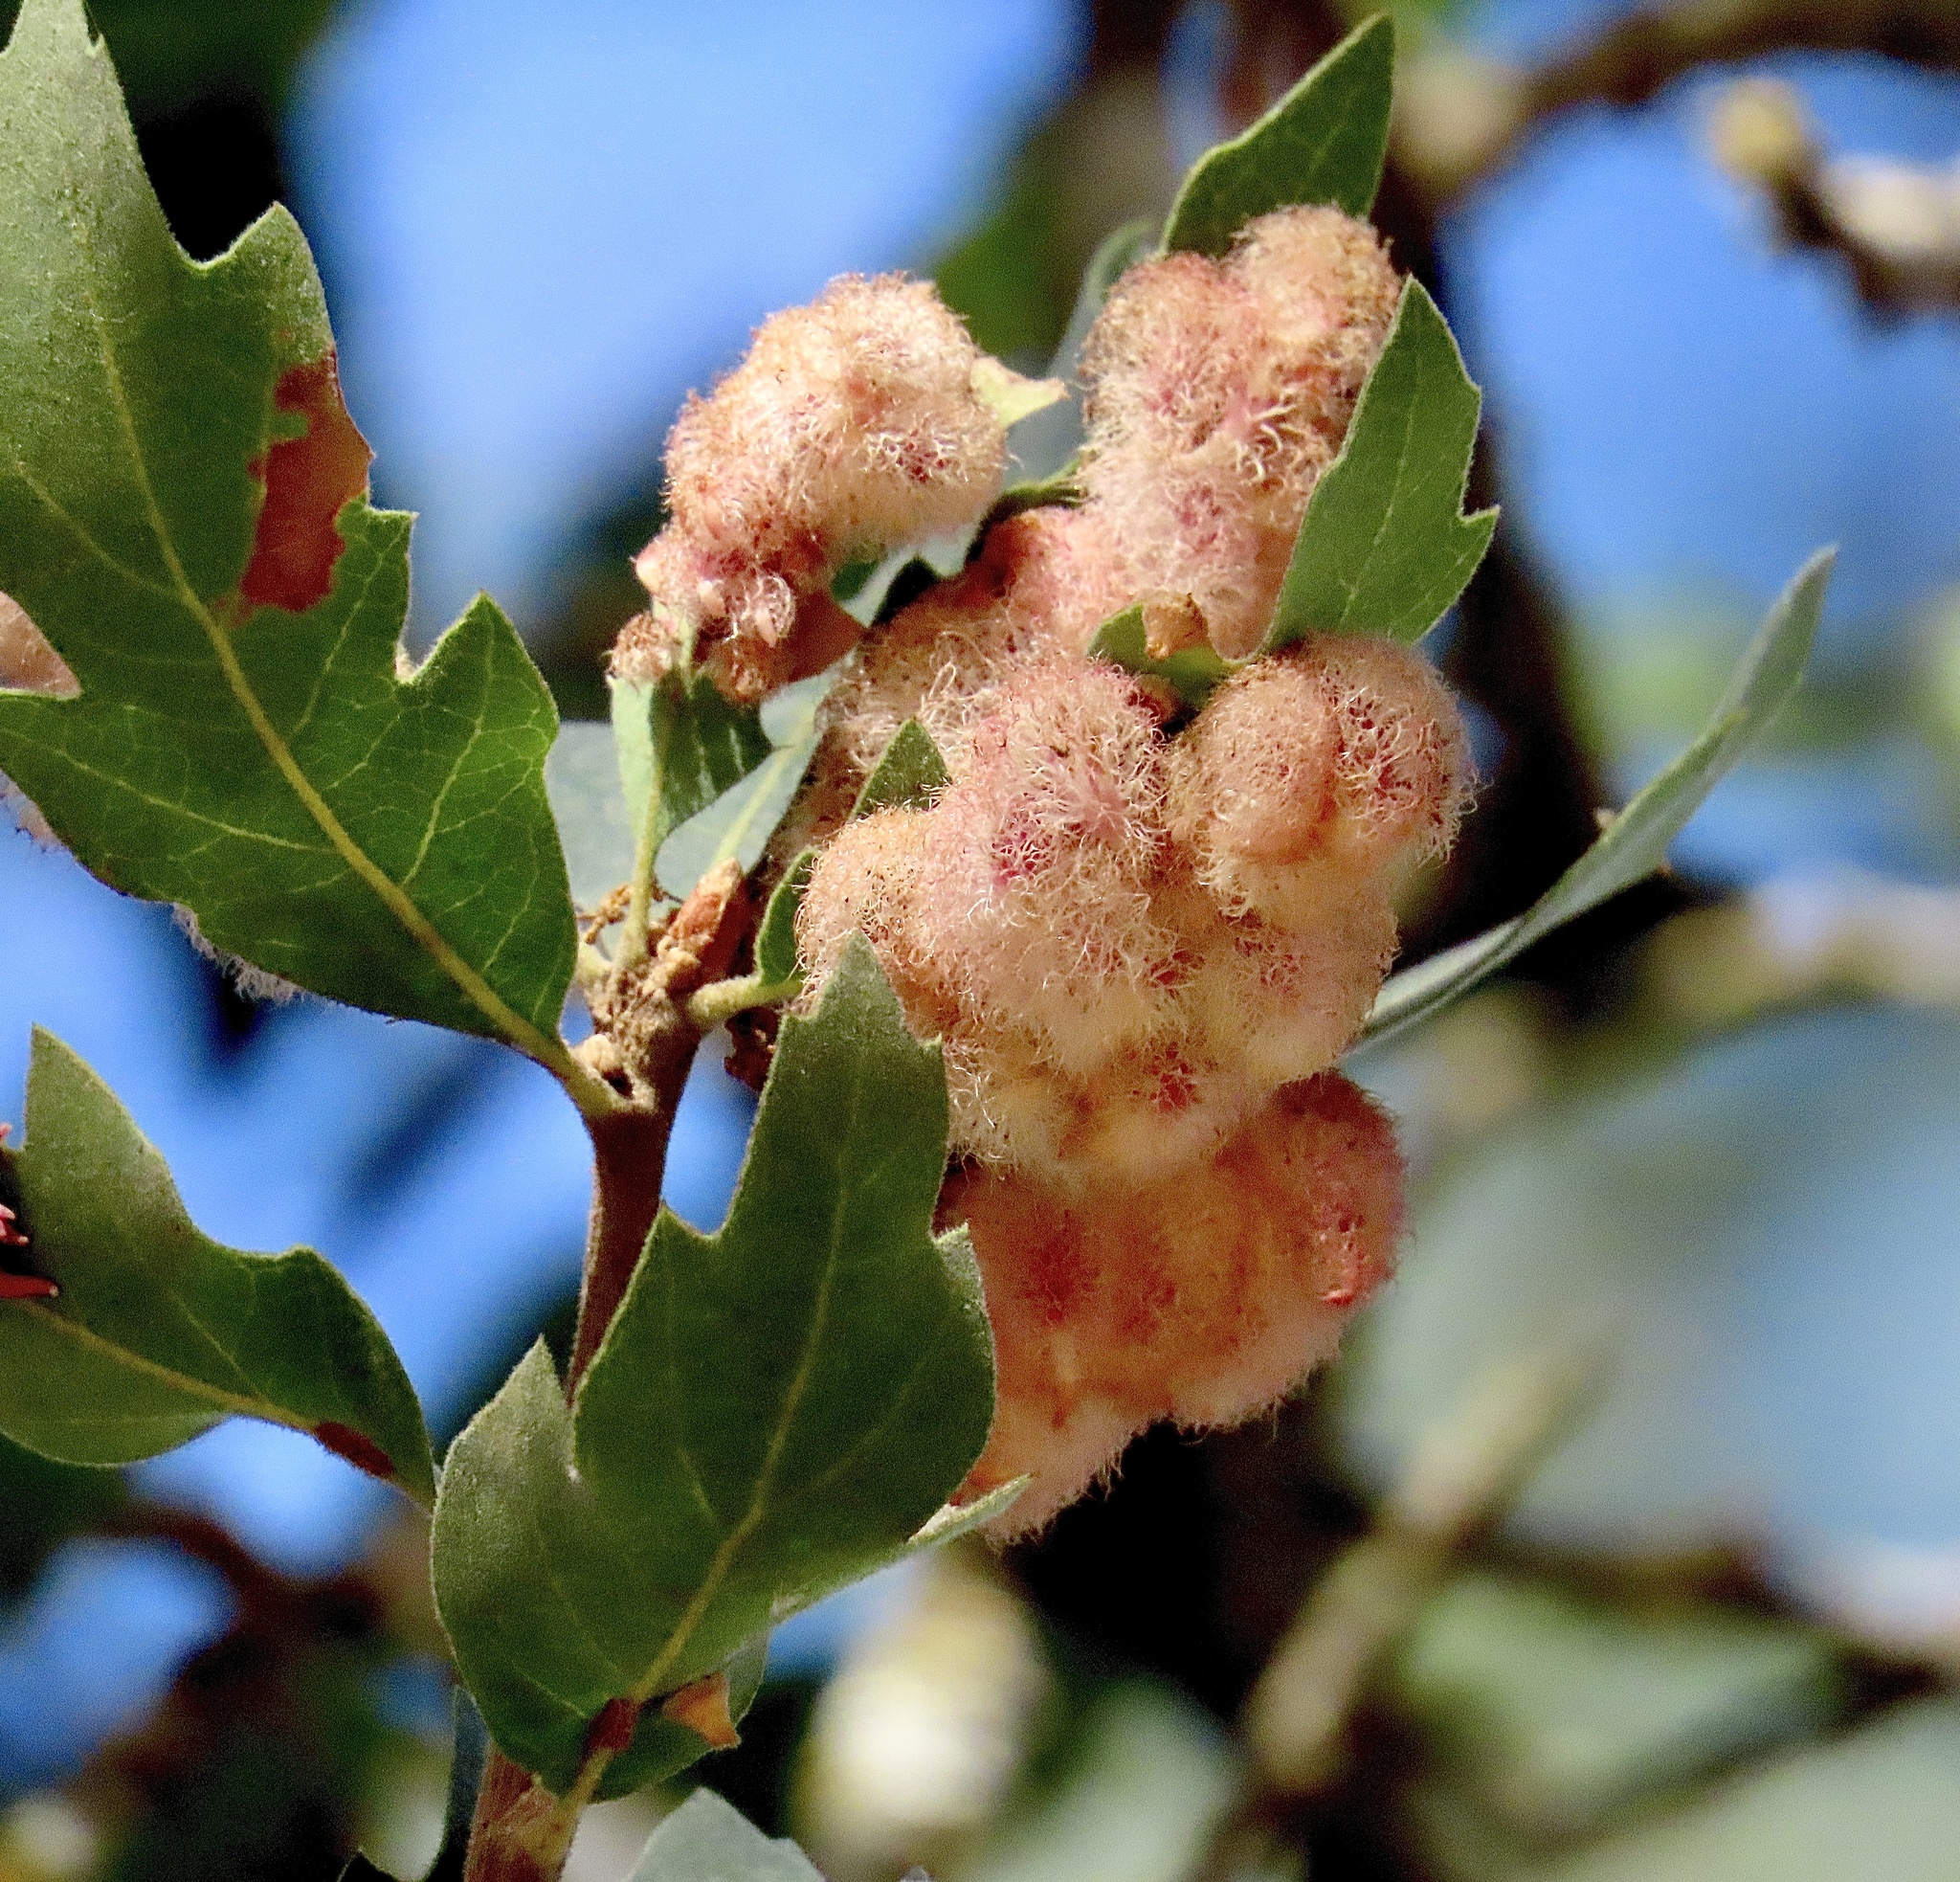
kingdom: Animalia
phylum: Arthropoda
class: Insecta
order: Hymenoptera
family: Cynipidae
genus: Andricus
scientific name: Andricus
